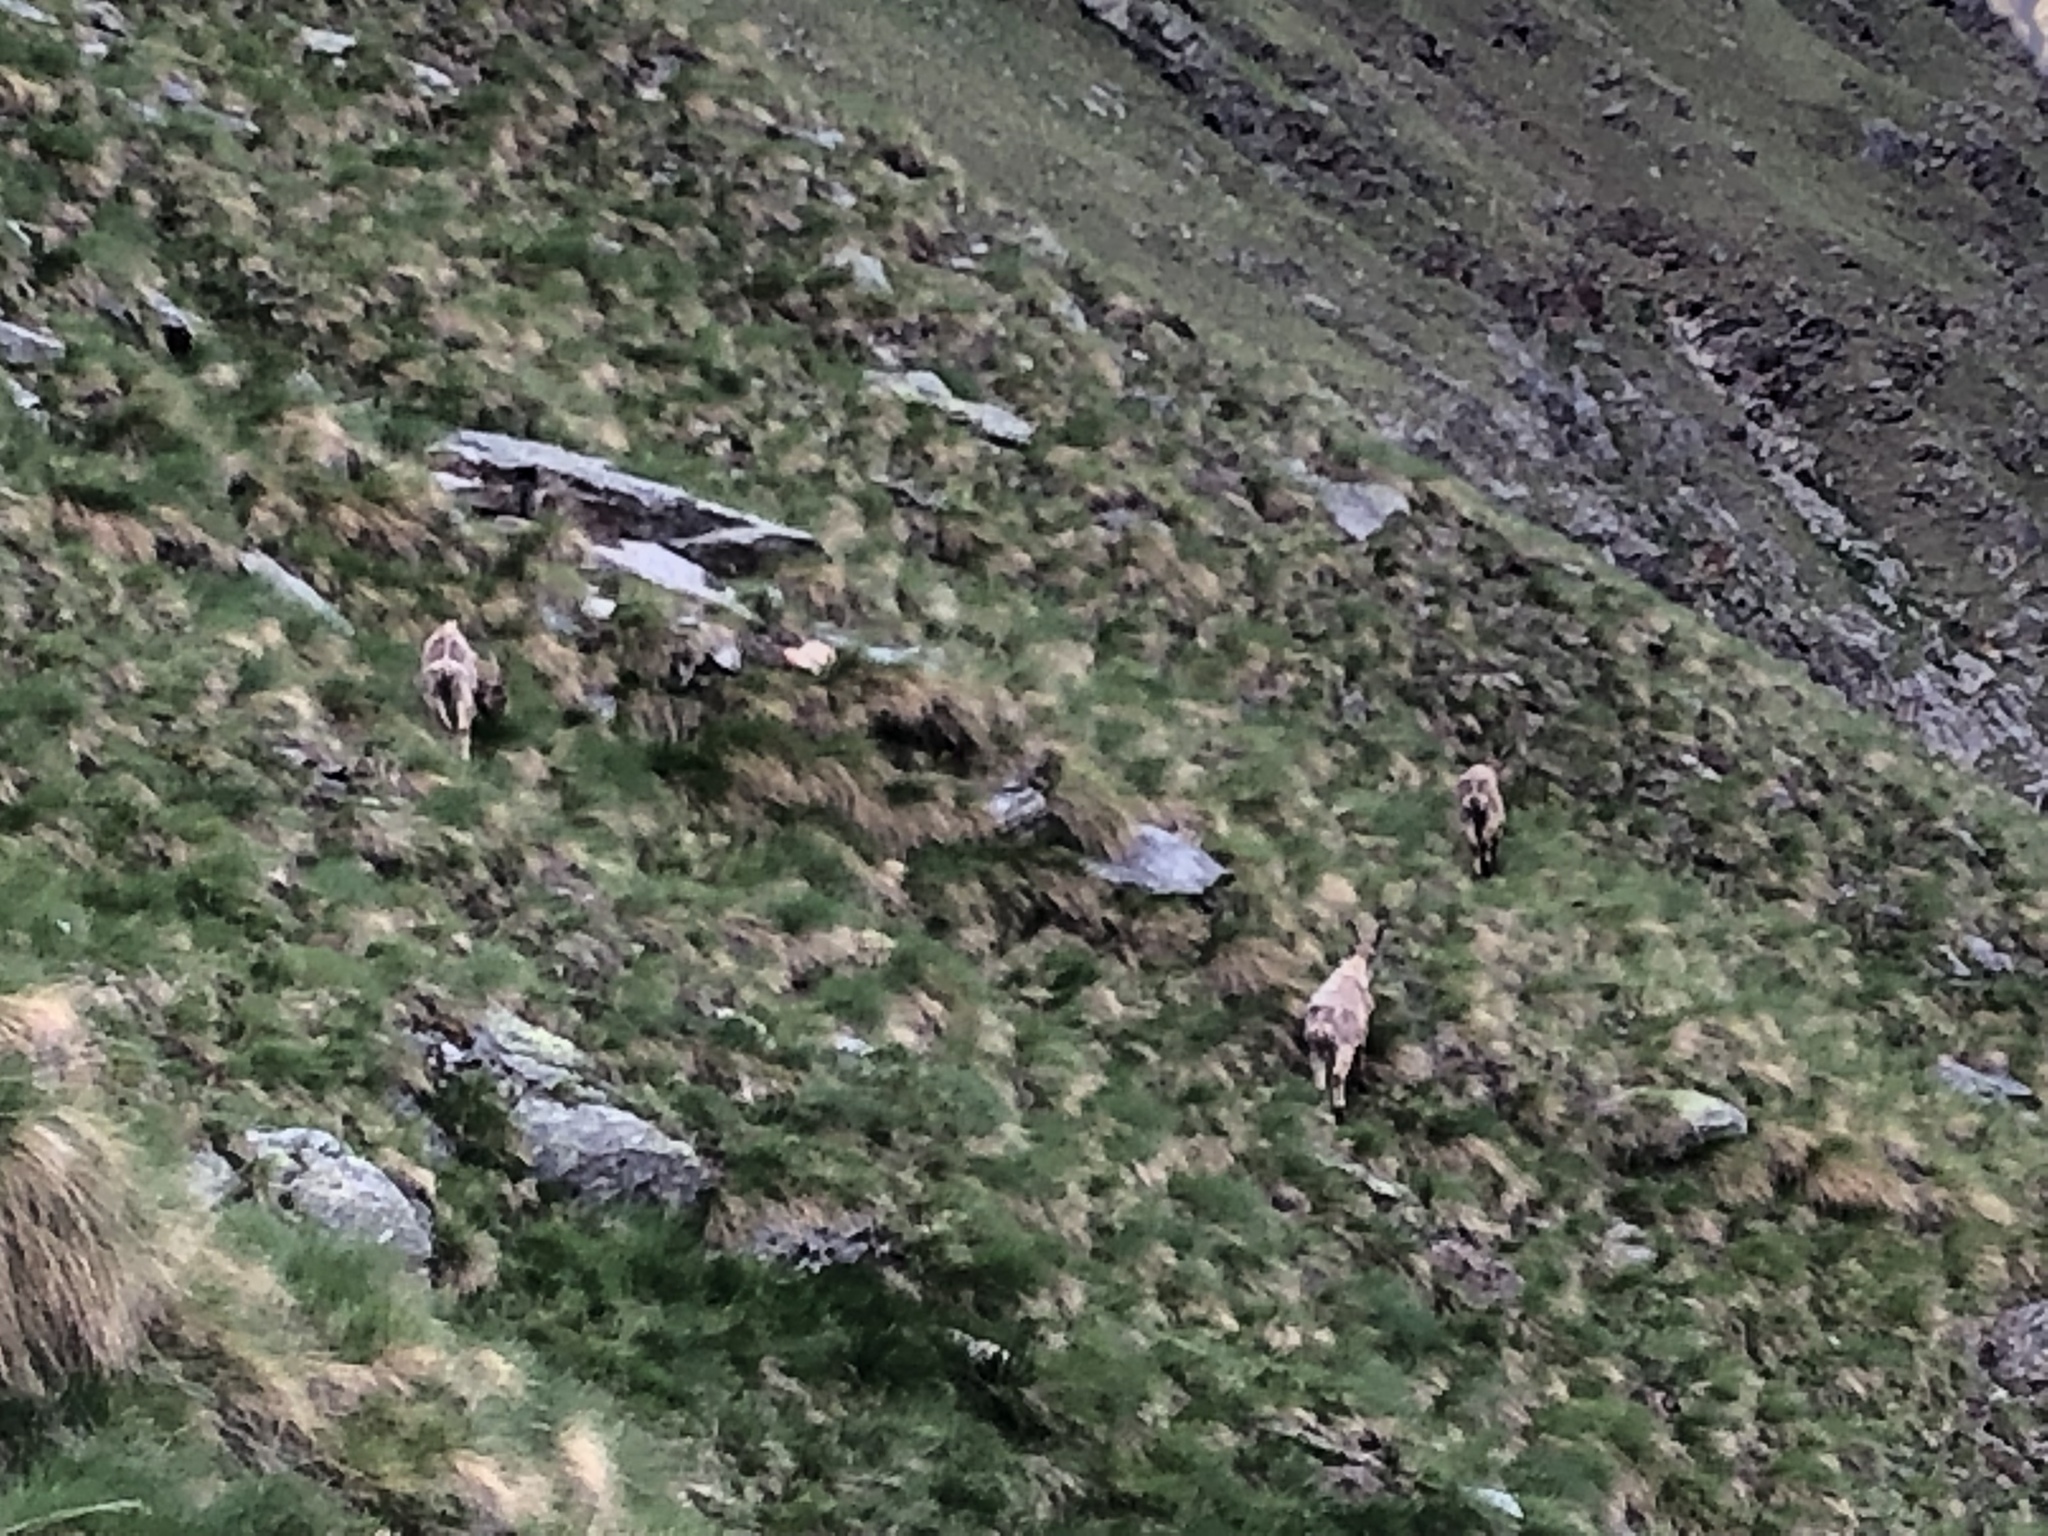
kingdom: Animalia
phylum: Chordata
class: Mammalia
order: Artiodactyla
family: Bovidae
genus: Capra
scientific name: Capra ibex
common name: Alpine ibex
